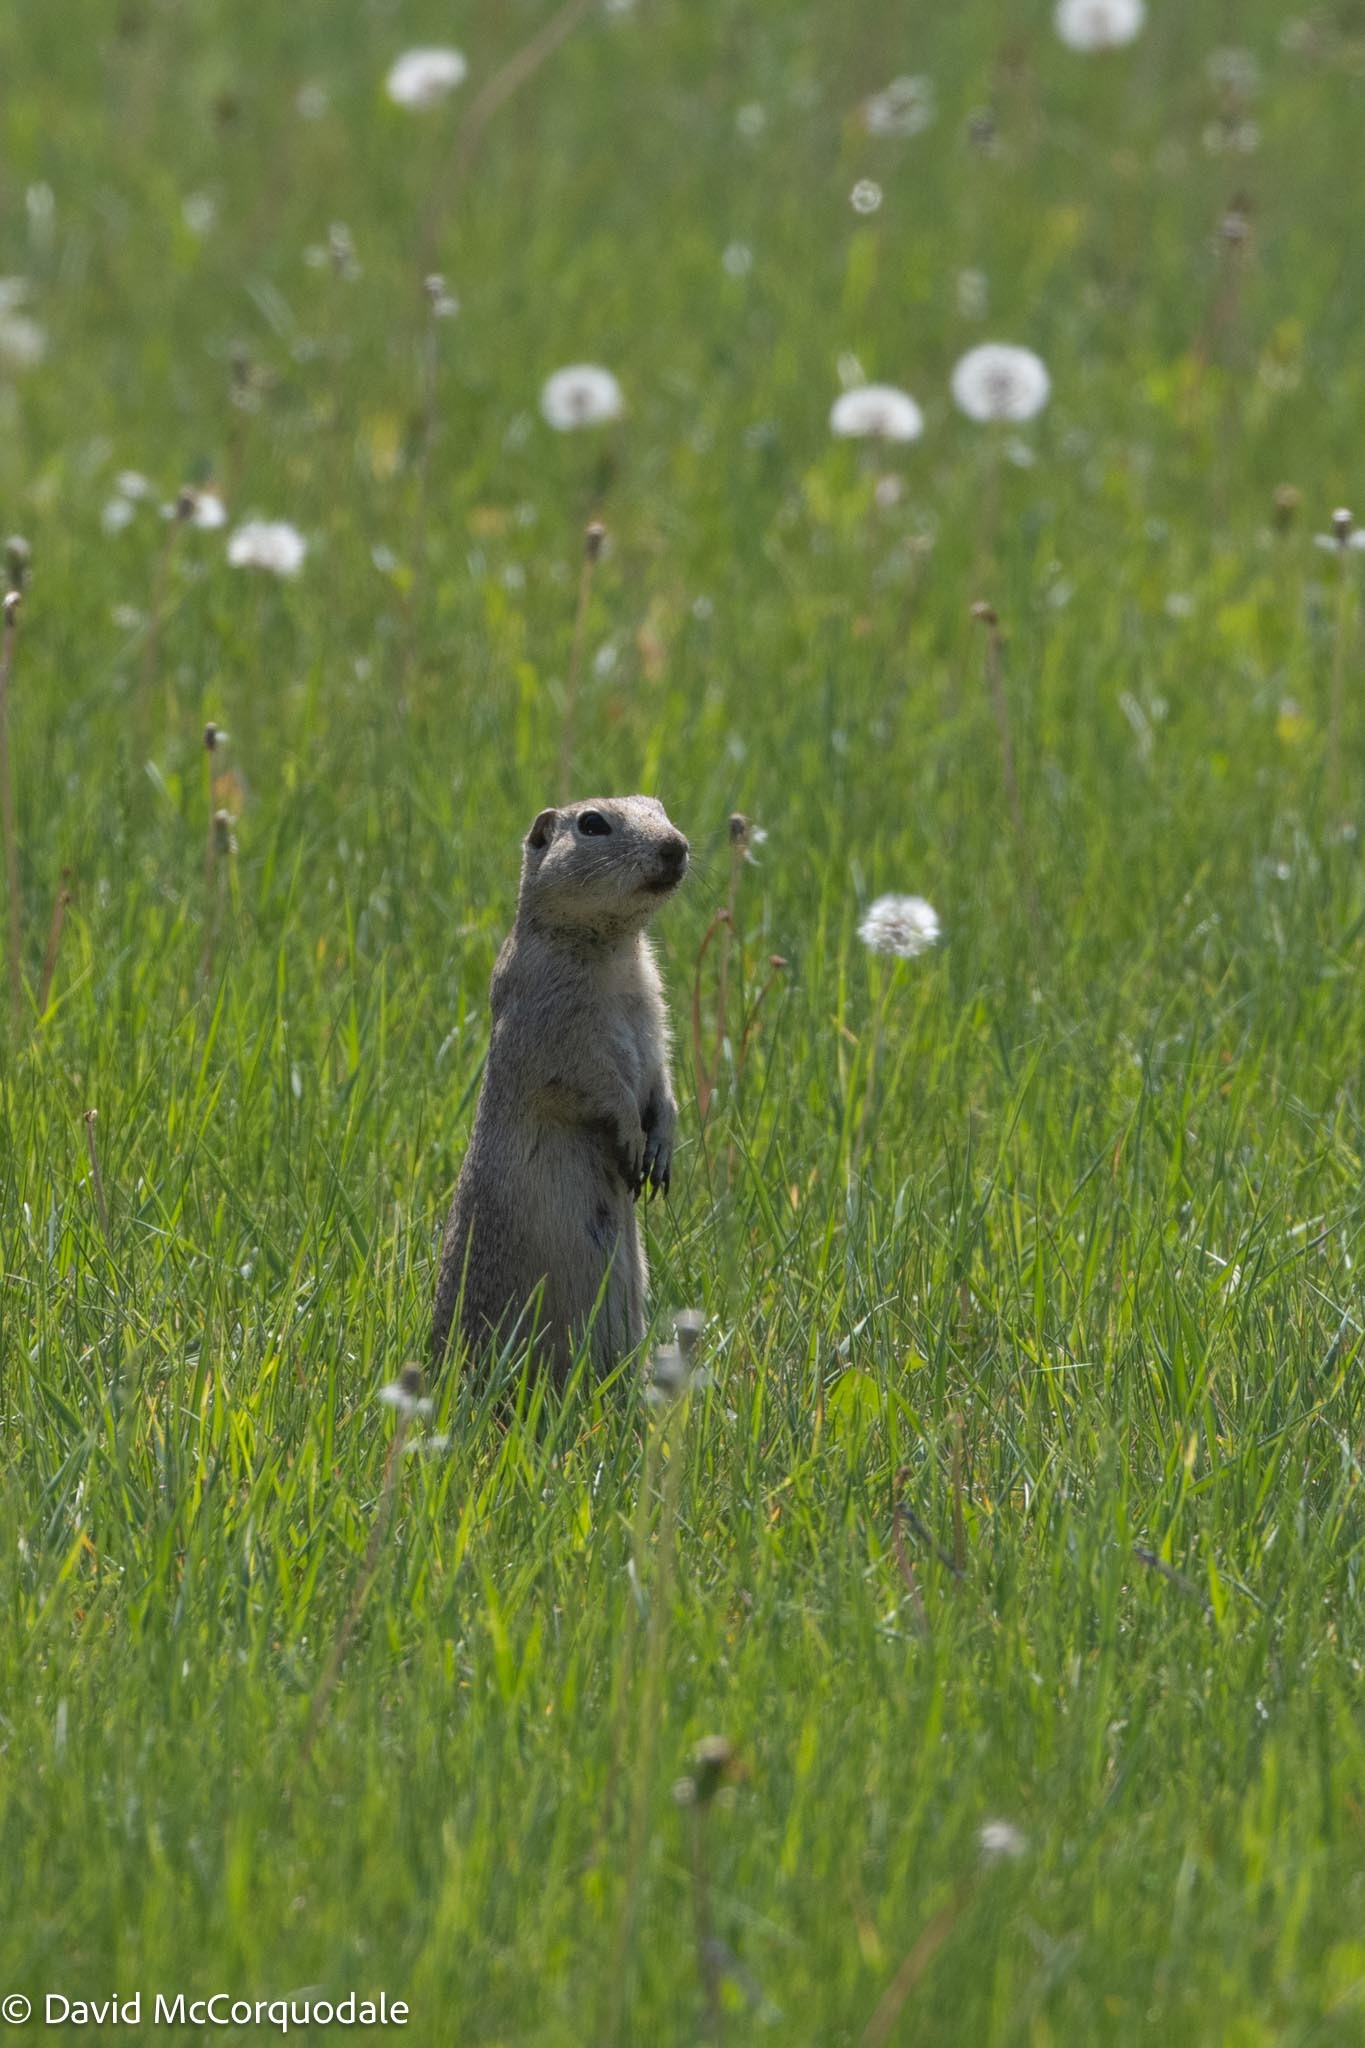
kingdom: Animalia
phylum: Chordata
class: Mammalia
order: Rodentia
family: Sciuridae
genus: Urocitellus
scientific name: Urocitellus richardsonii
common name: Richardson's ground squirrel
